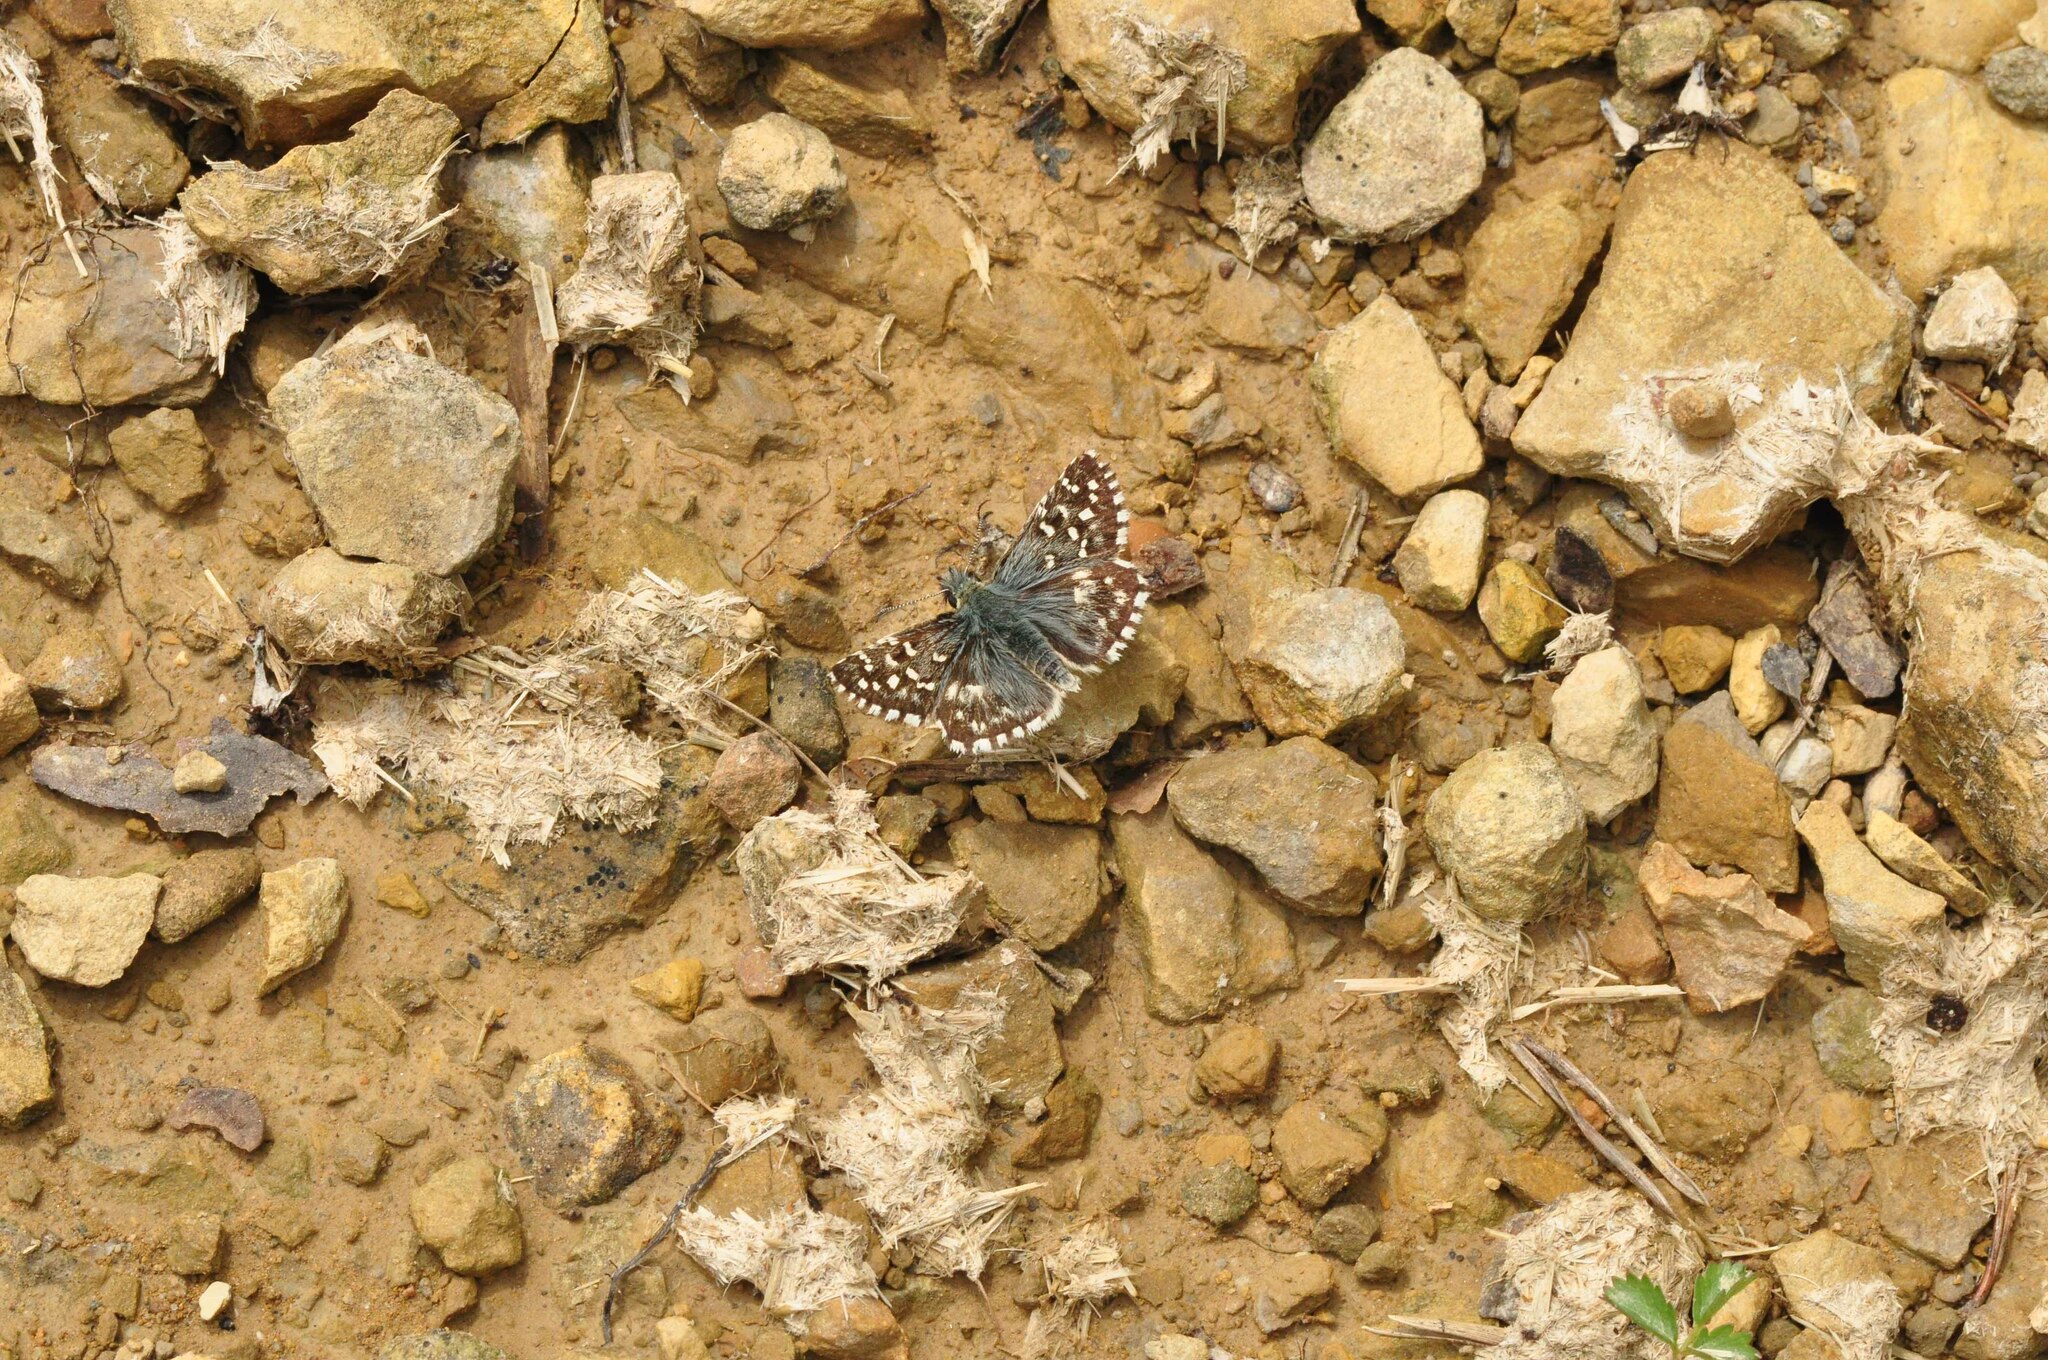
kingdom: Animalia
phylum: Arthropoda
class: Insecta
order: Lepidoptera
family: Hesperiidae
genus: Pyrgus
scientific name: Pyrgus malvoides
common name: Southern grizzled skipper
